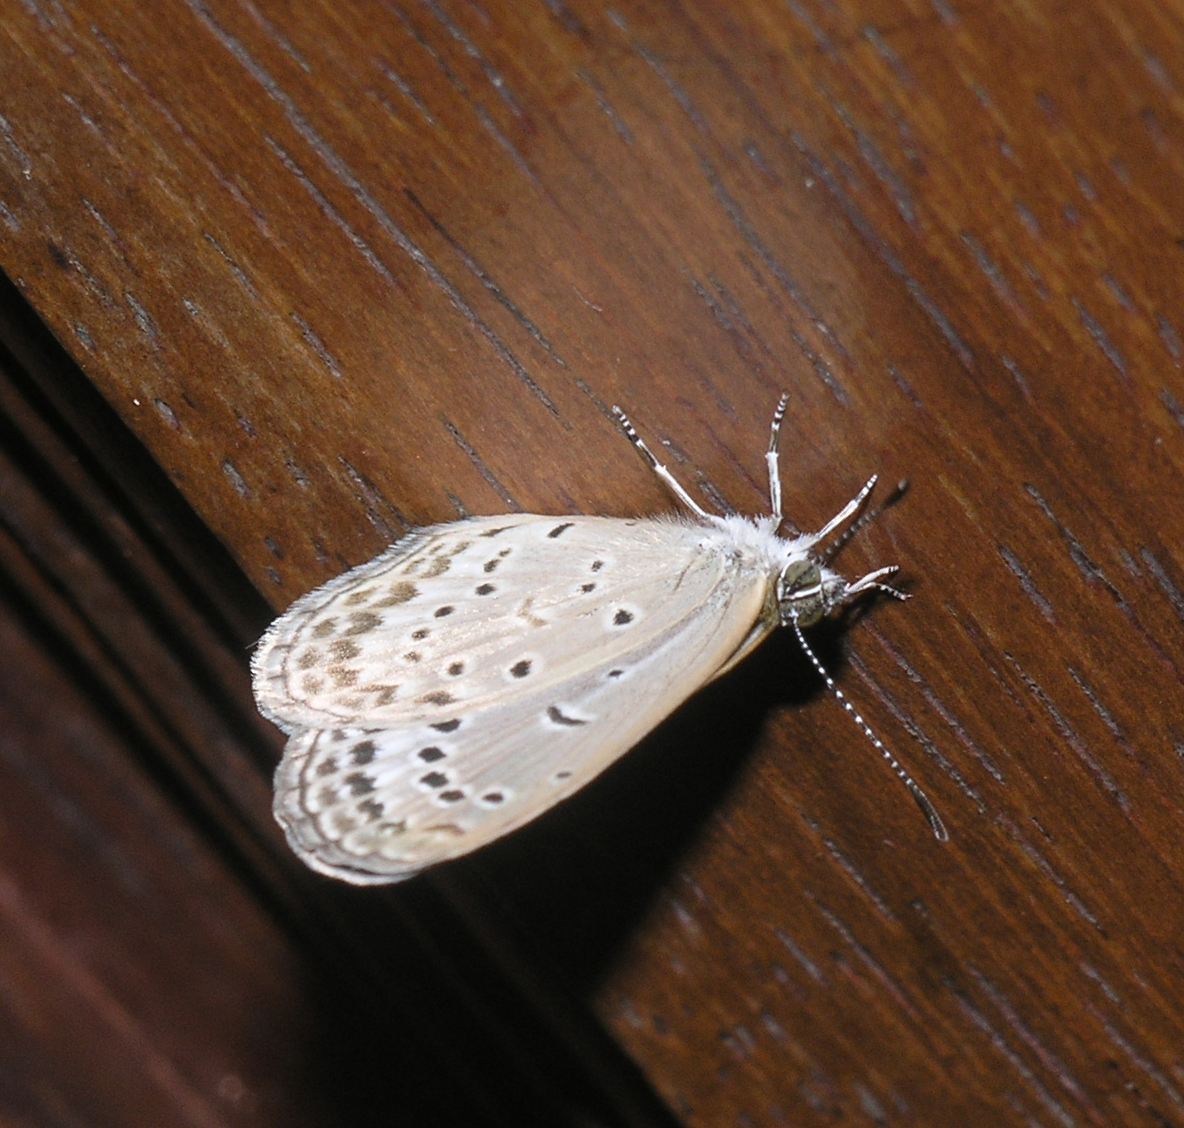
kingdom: Animalia
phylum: Arthropoda
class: Insecta
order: Lepidoptera
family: Lycaenidae
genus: Pseudozizeeria
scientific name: Pseudozizeeria maha
